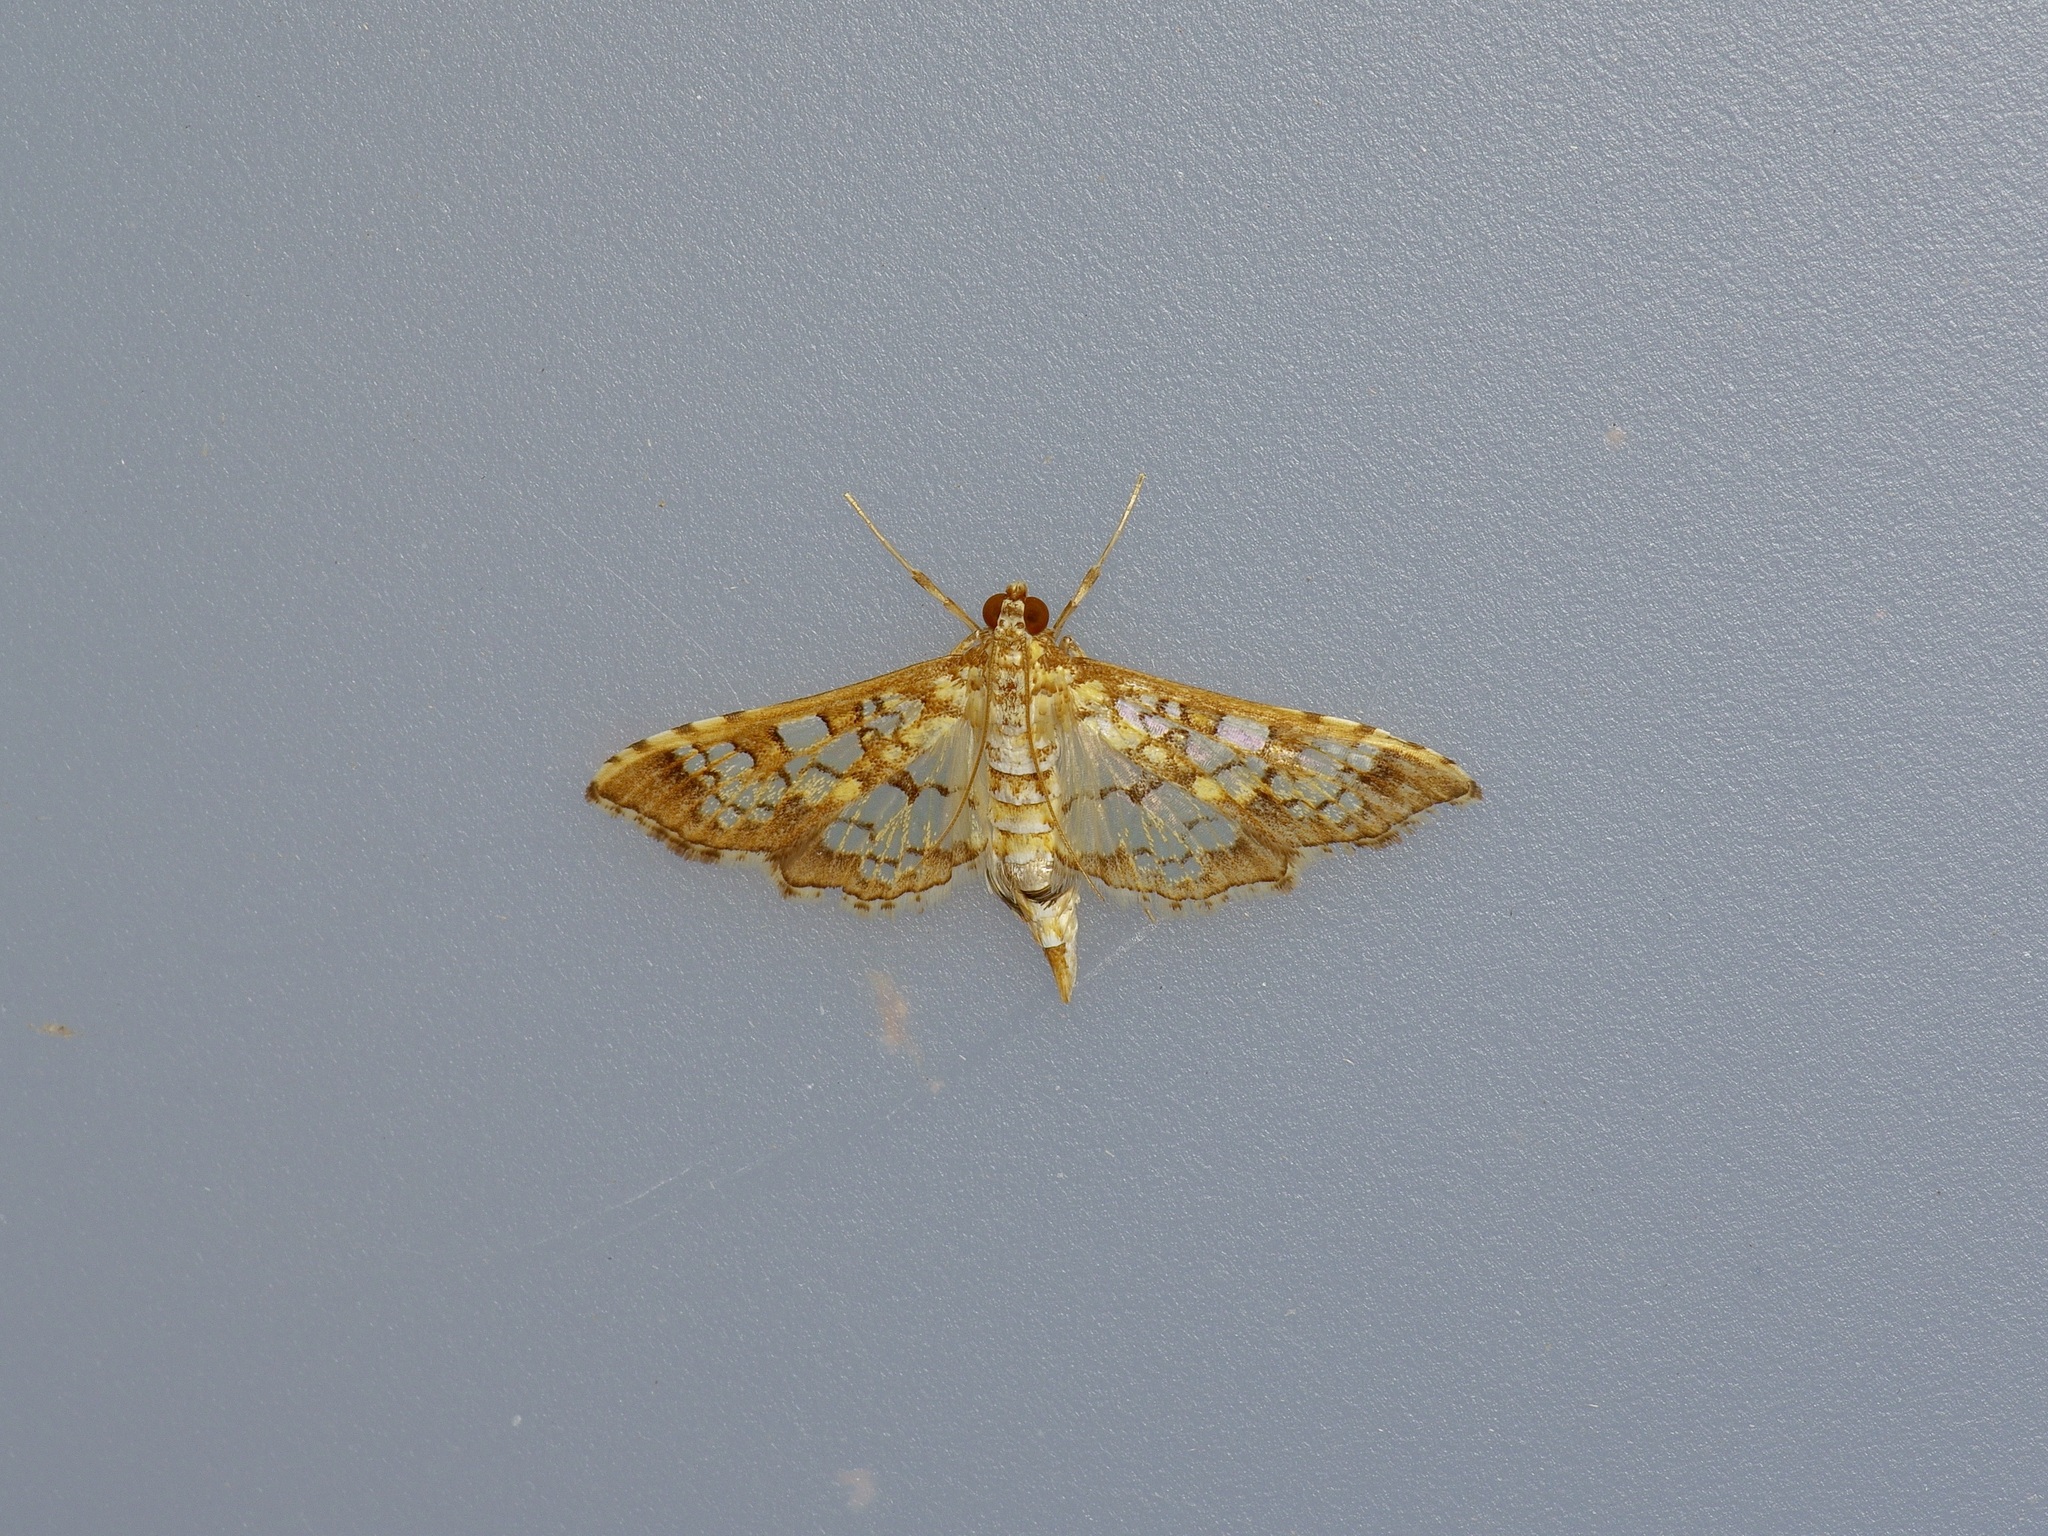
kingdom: Animalia
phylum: Arthropoda
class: Insecta
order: Lepidoptera
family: Crambidae
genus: Samea
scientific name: Samea ecclesialis
